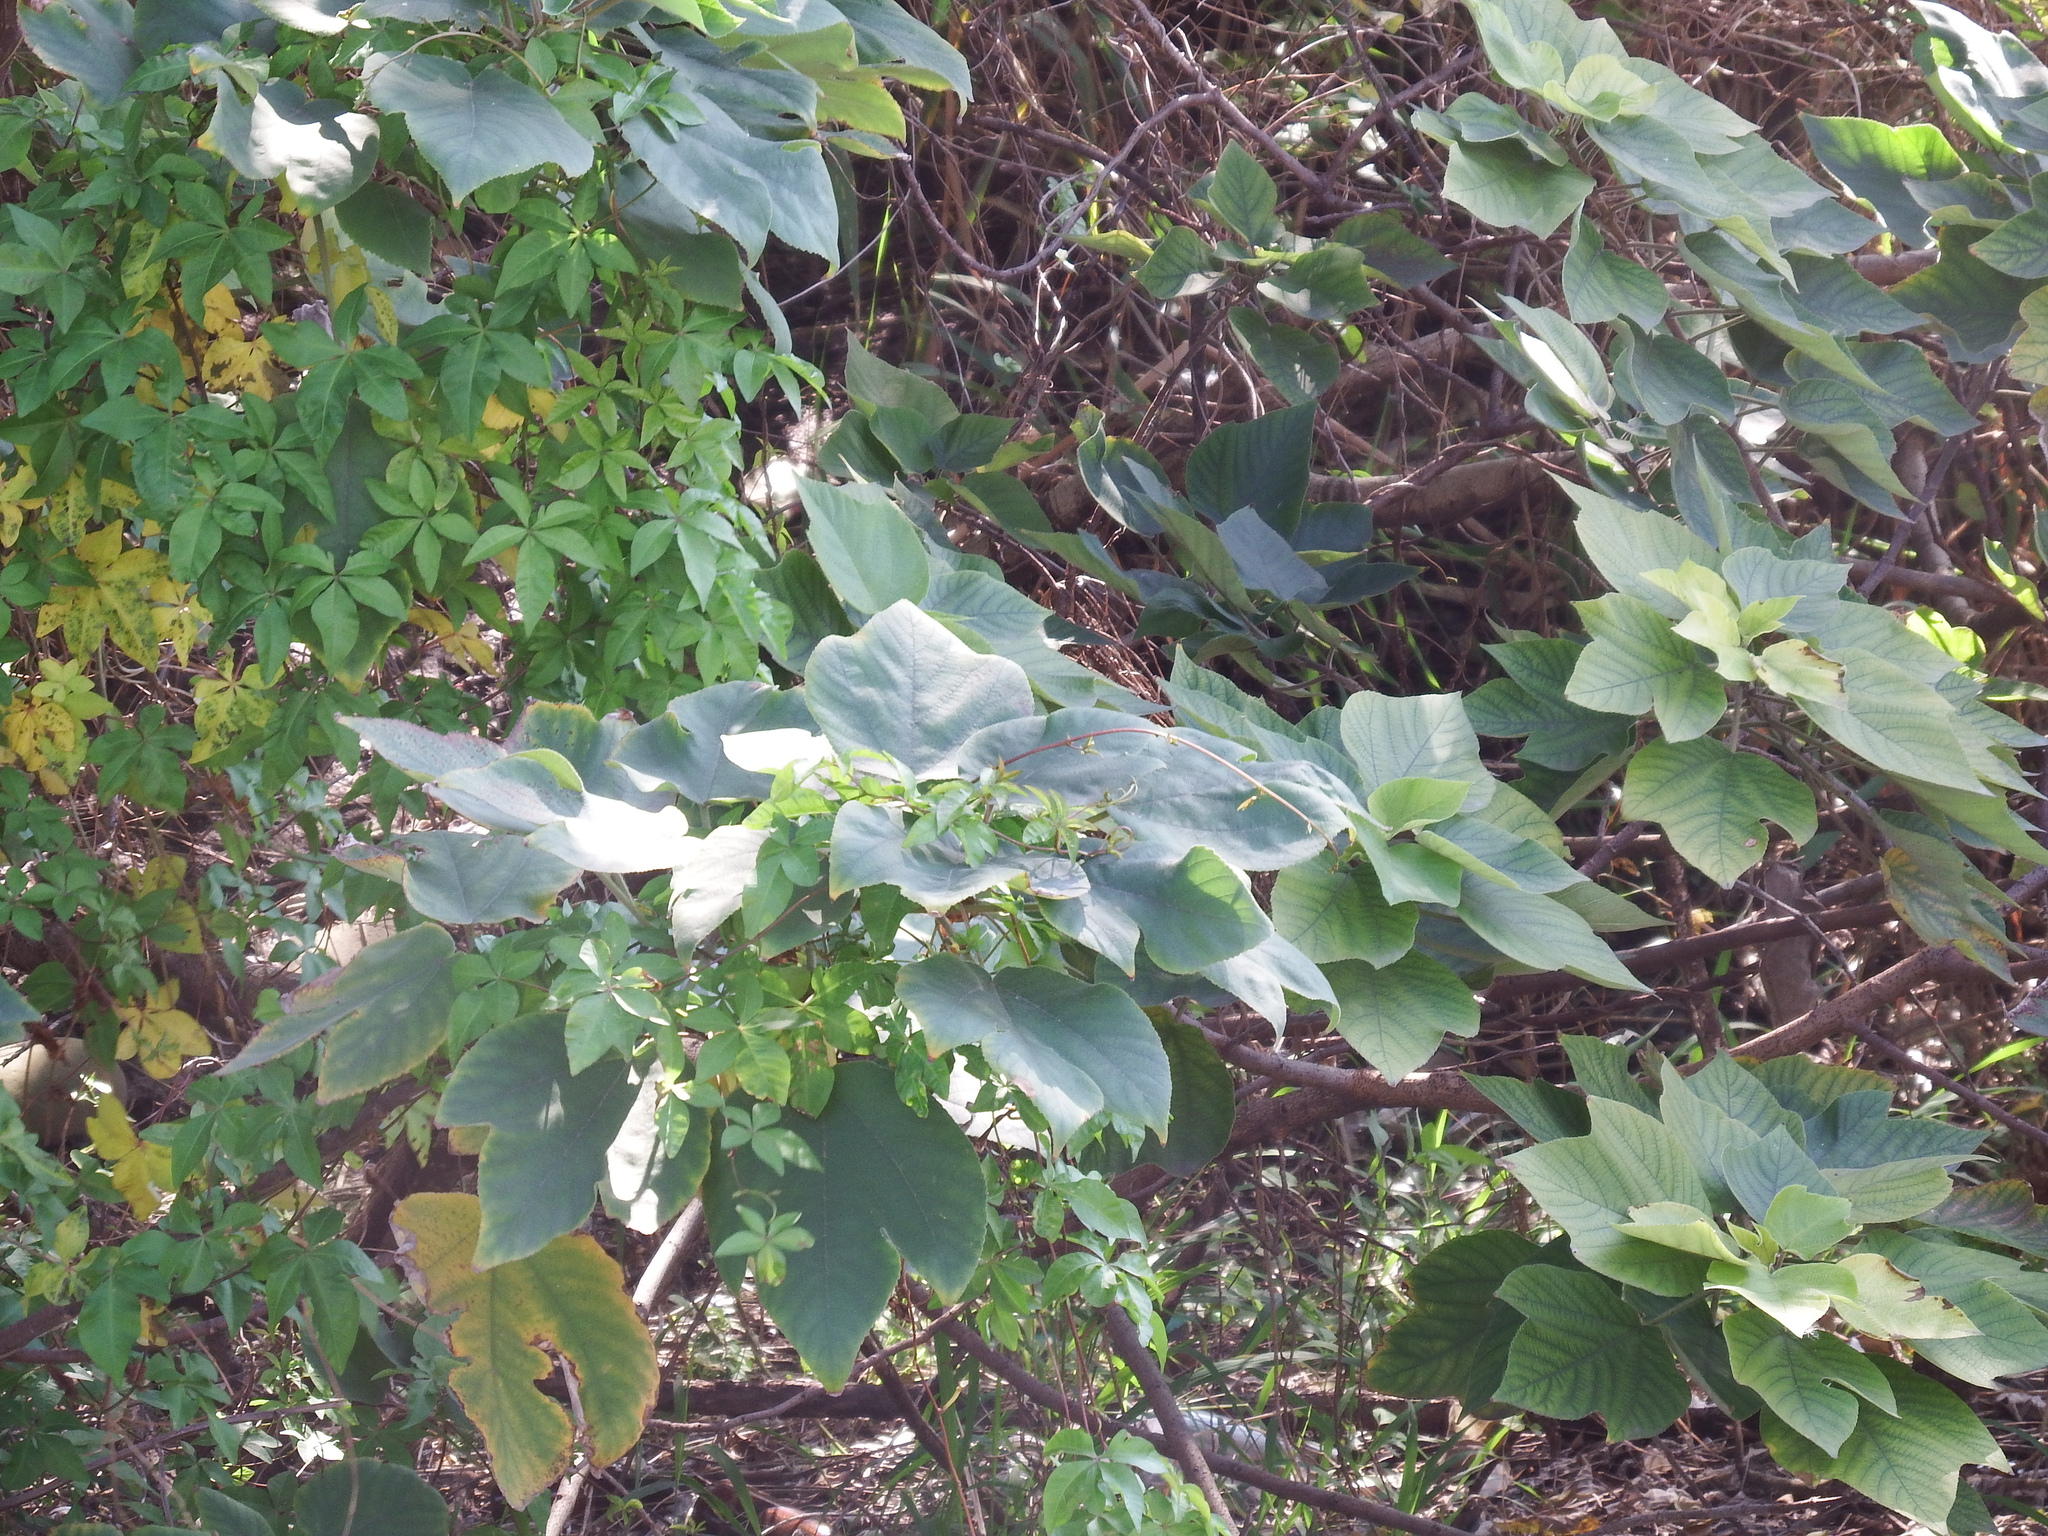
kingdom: Plantae
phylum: Tracheophyta
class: Magnoliopsida
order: Rosales
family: Moraceae
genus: Broussonetia
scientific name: Broussonetia papyrifera
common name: Paper mulberry
